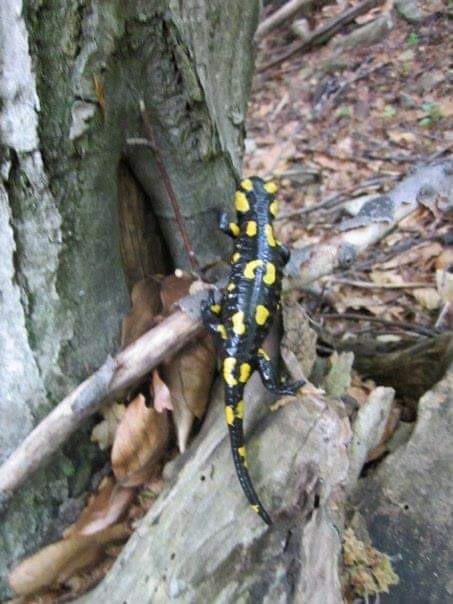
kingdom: Animalia
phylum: Chordata
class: Amphibia
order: Caudata
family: Salamandridae
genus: Salamandra
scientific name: Salamandra salamandra
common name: Fire salamander
